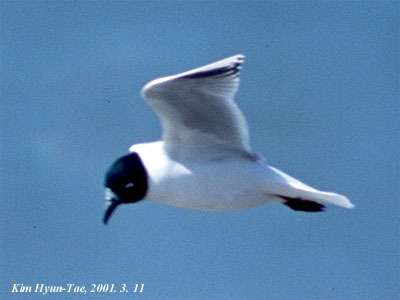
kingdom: Animalia
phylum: Chordata
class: Aves
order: Charadriiformes
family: Laridae
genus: Chroicocephalus
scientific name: Chroicocephalus saundersi
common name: Saunders's gull
